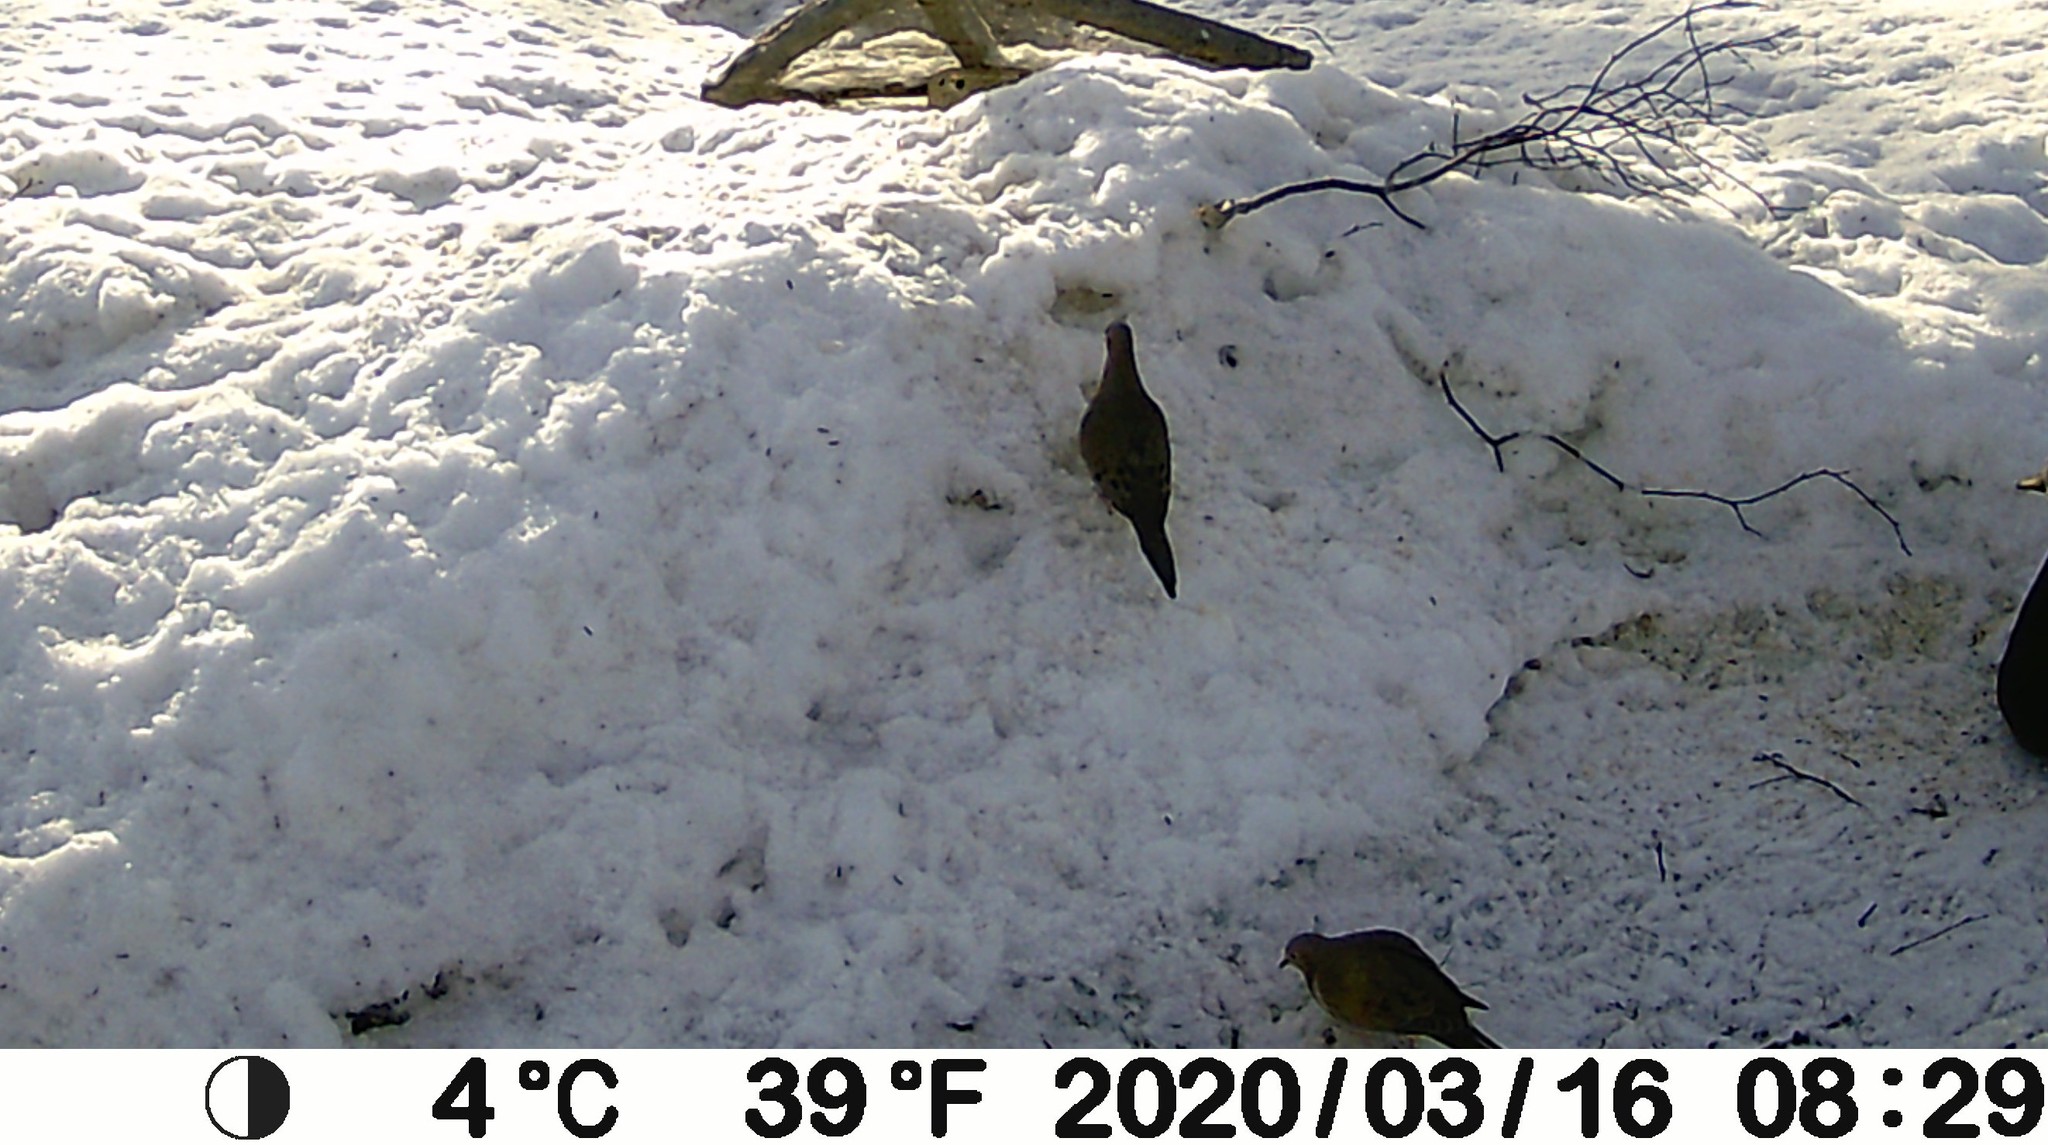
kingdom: Animalia
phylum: Chordata
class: Aves
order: Columbiformes
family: Columbidae
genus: Zenaida
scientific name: Zenaida macroura
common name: Mourning dove
